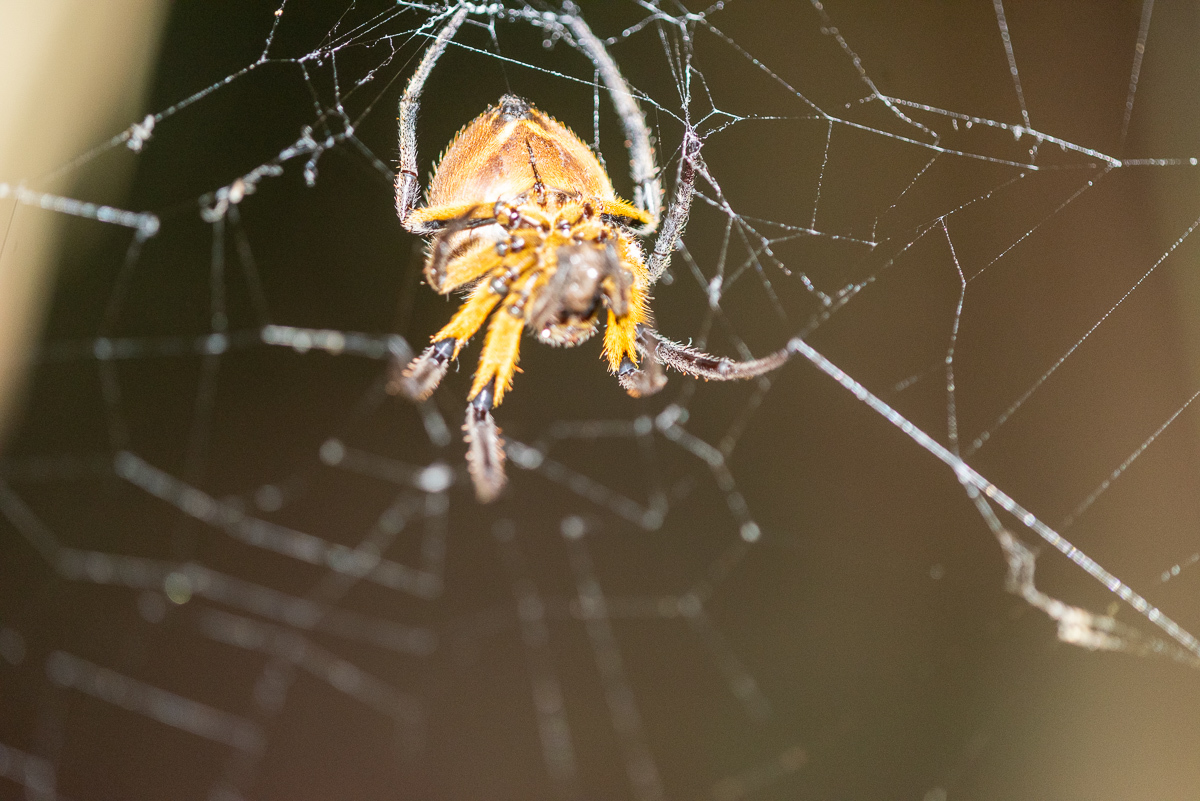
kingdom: Animalia
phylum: Arthropoda
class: Arachnida
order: Araneae
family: Araneidae
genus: Eriophora
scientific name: Eriophora fuliginea
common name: Orb weavers
